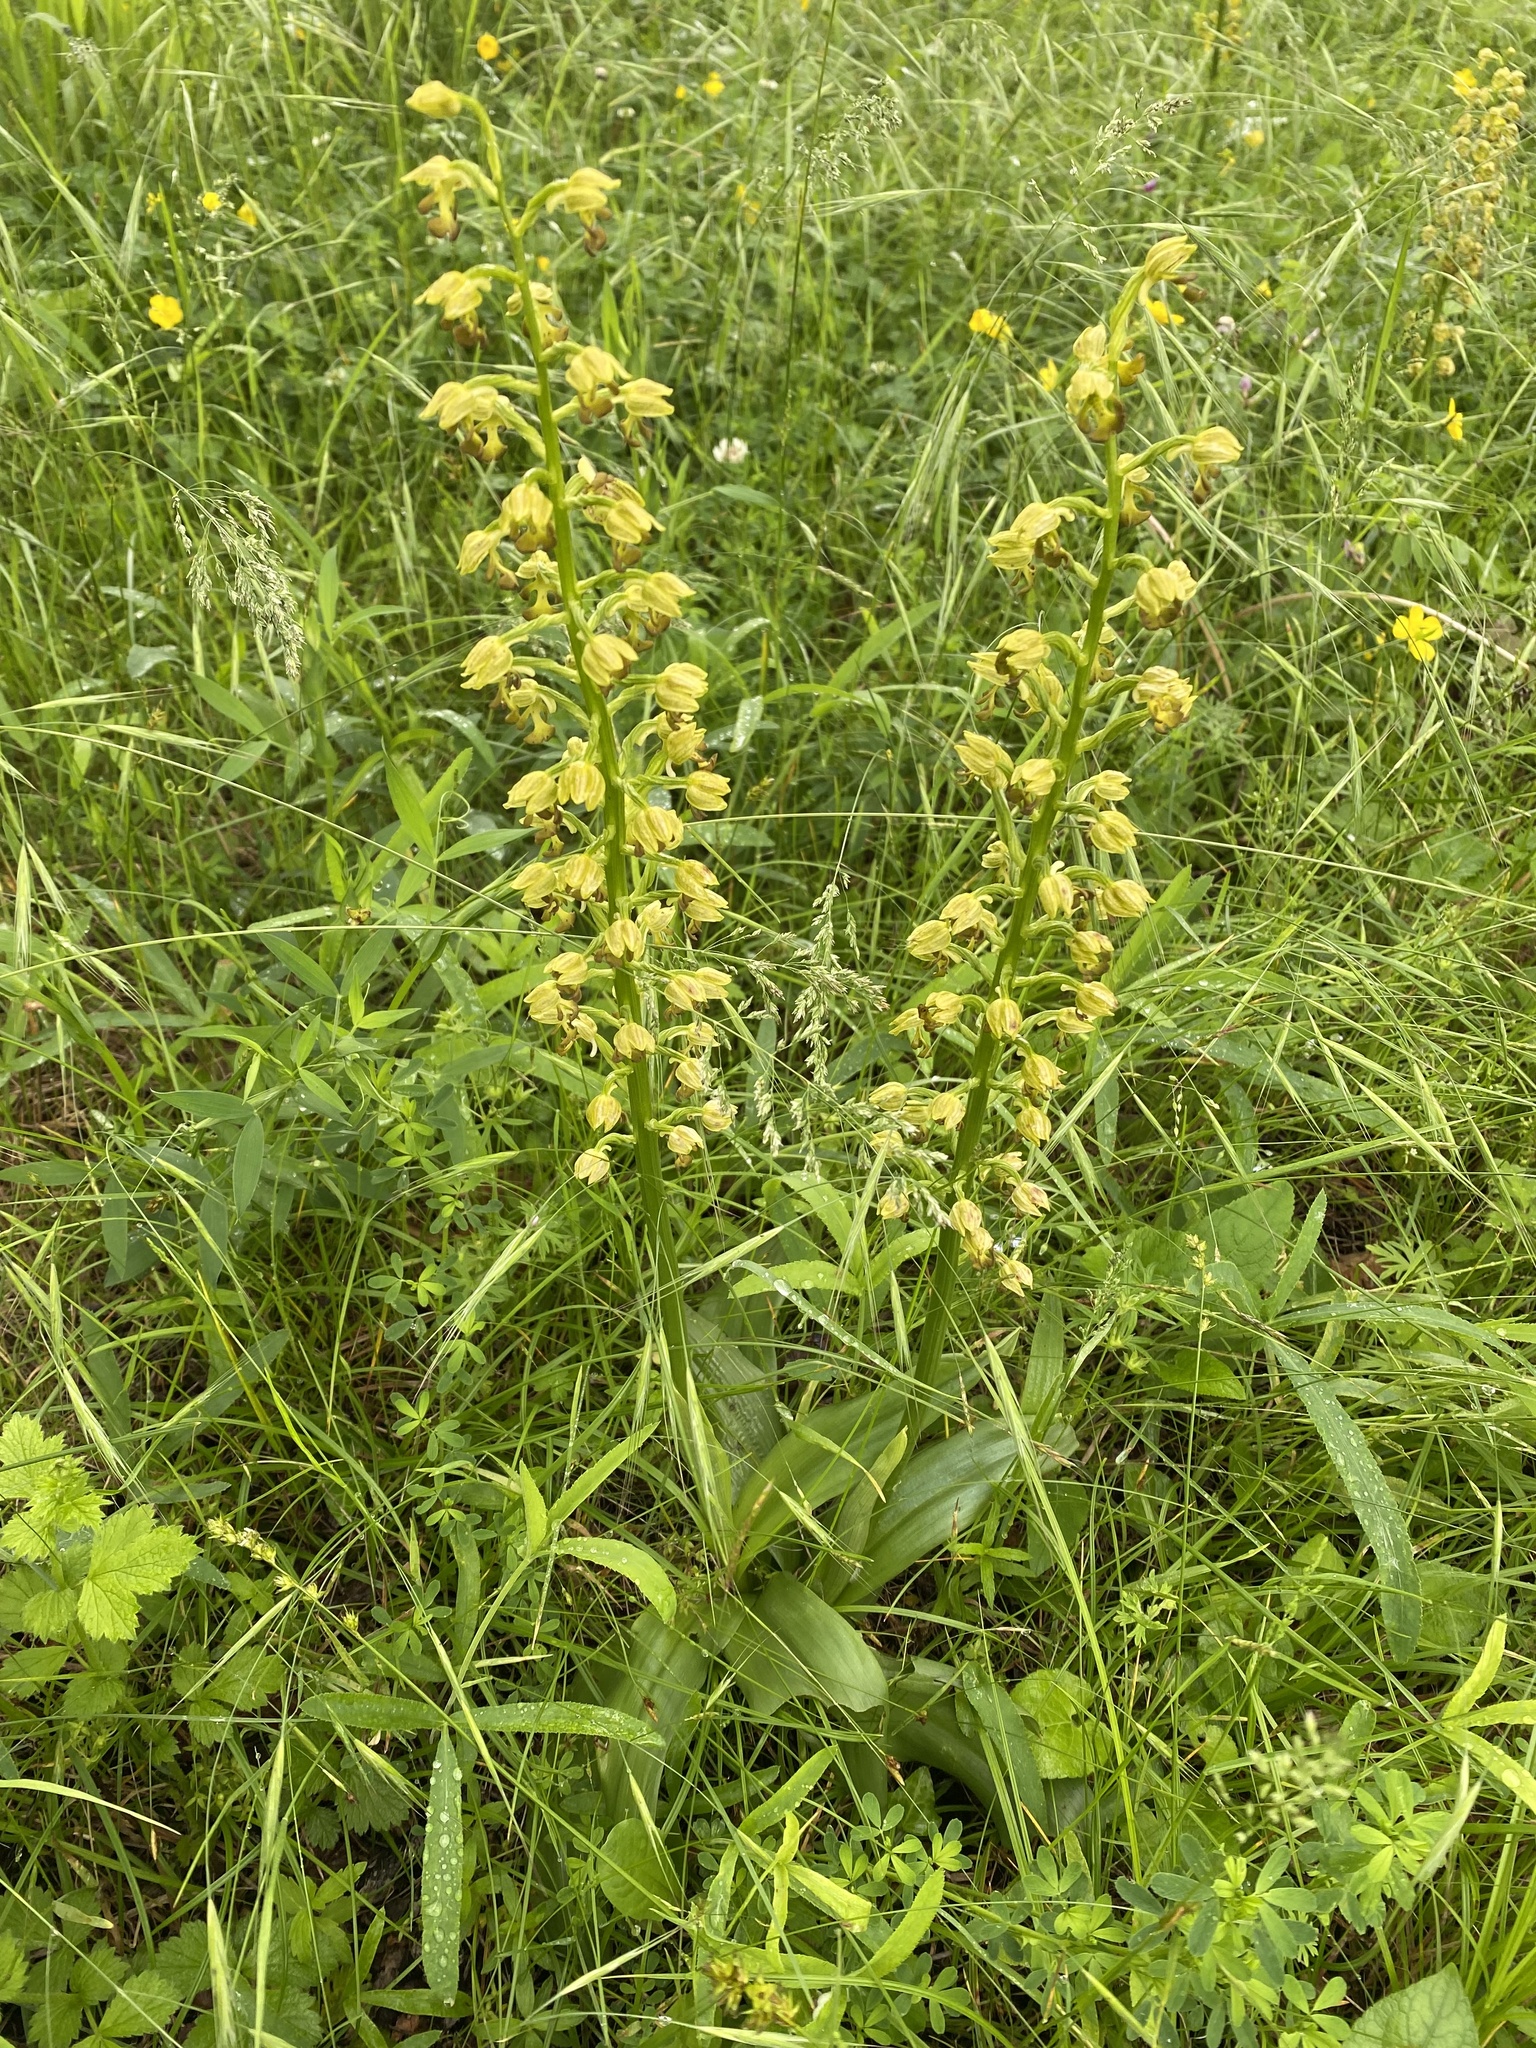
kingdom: Plantae
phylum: Tracheophyta
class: Liliopsida
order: Asparagales
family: Orchidaceae
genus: Orchis
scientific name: Orchis punctulata
